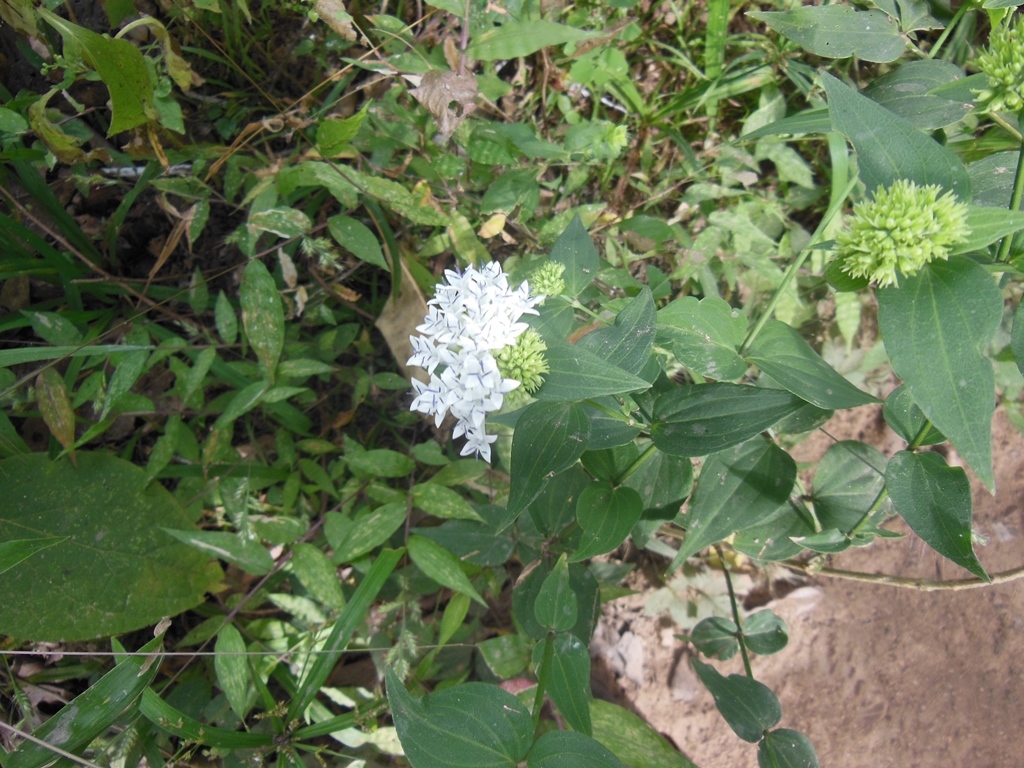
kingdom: Plantae
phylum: Tracheophyta
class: Magnoliopsida
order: Gentianales
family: Rubiaceae
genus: Bouvardia
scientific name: Bouvardia quinquenervata
